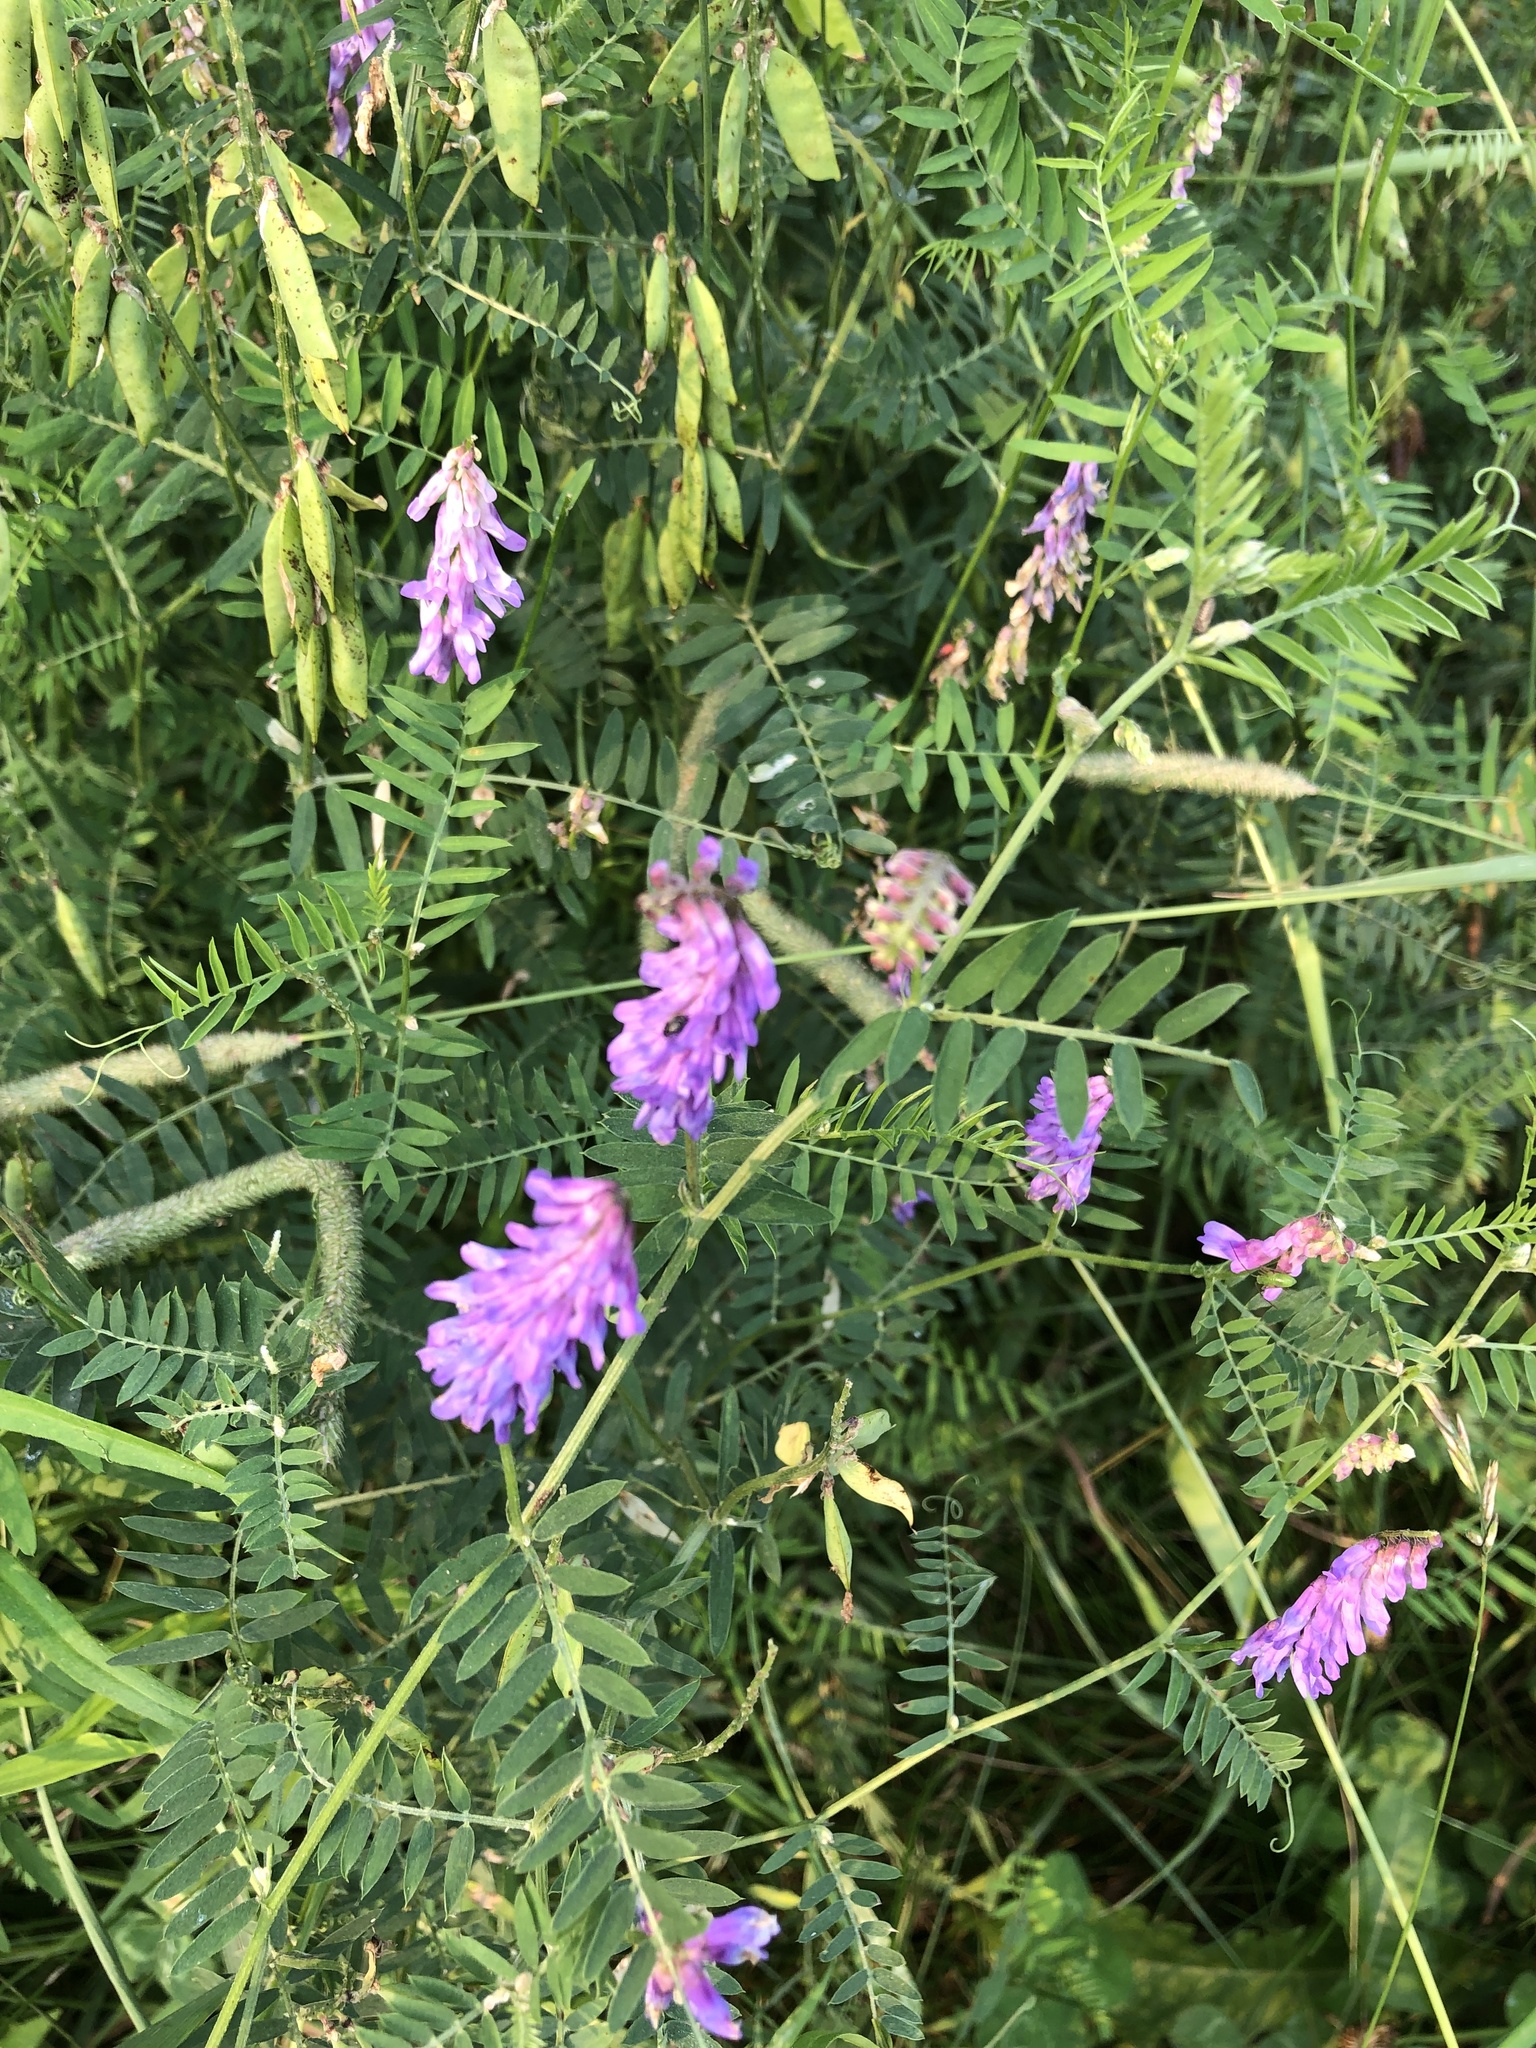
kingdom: Plantae
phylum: Tracheophyta
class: Magnoliopsida
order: Fabales
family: Fabaceae
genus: Vicia
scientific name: Vicia cracca
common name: Bird vetch
